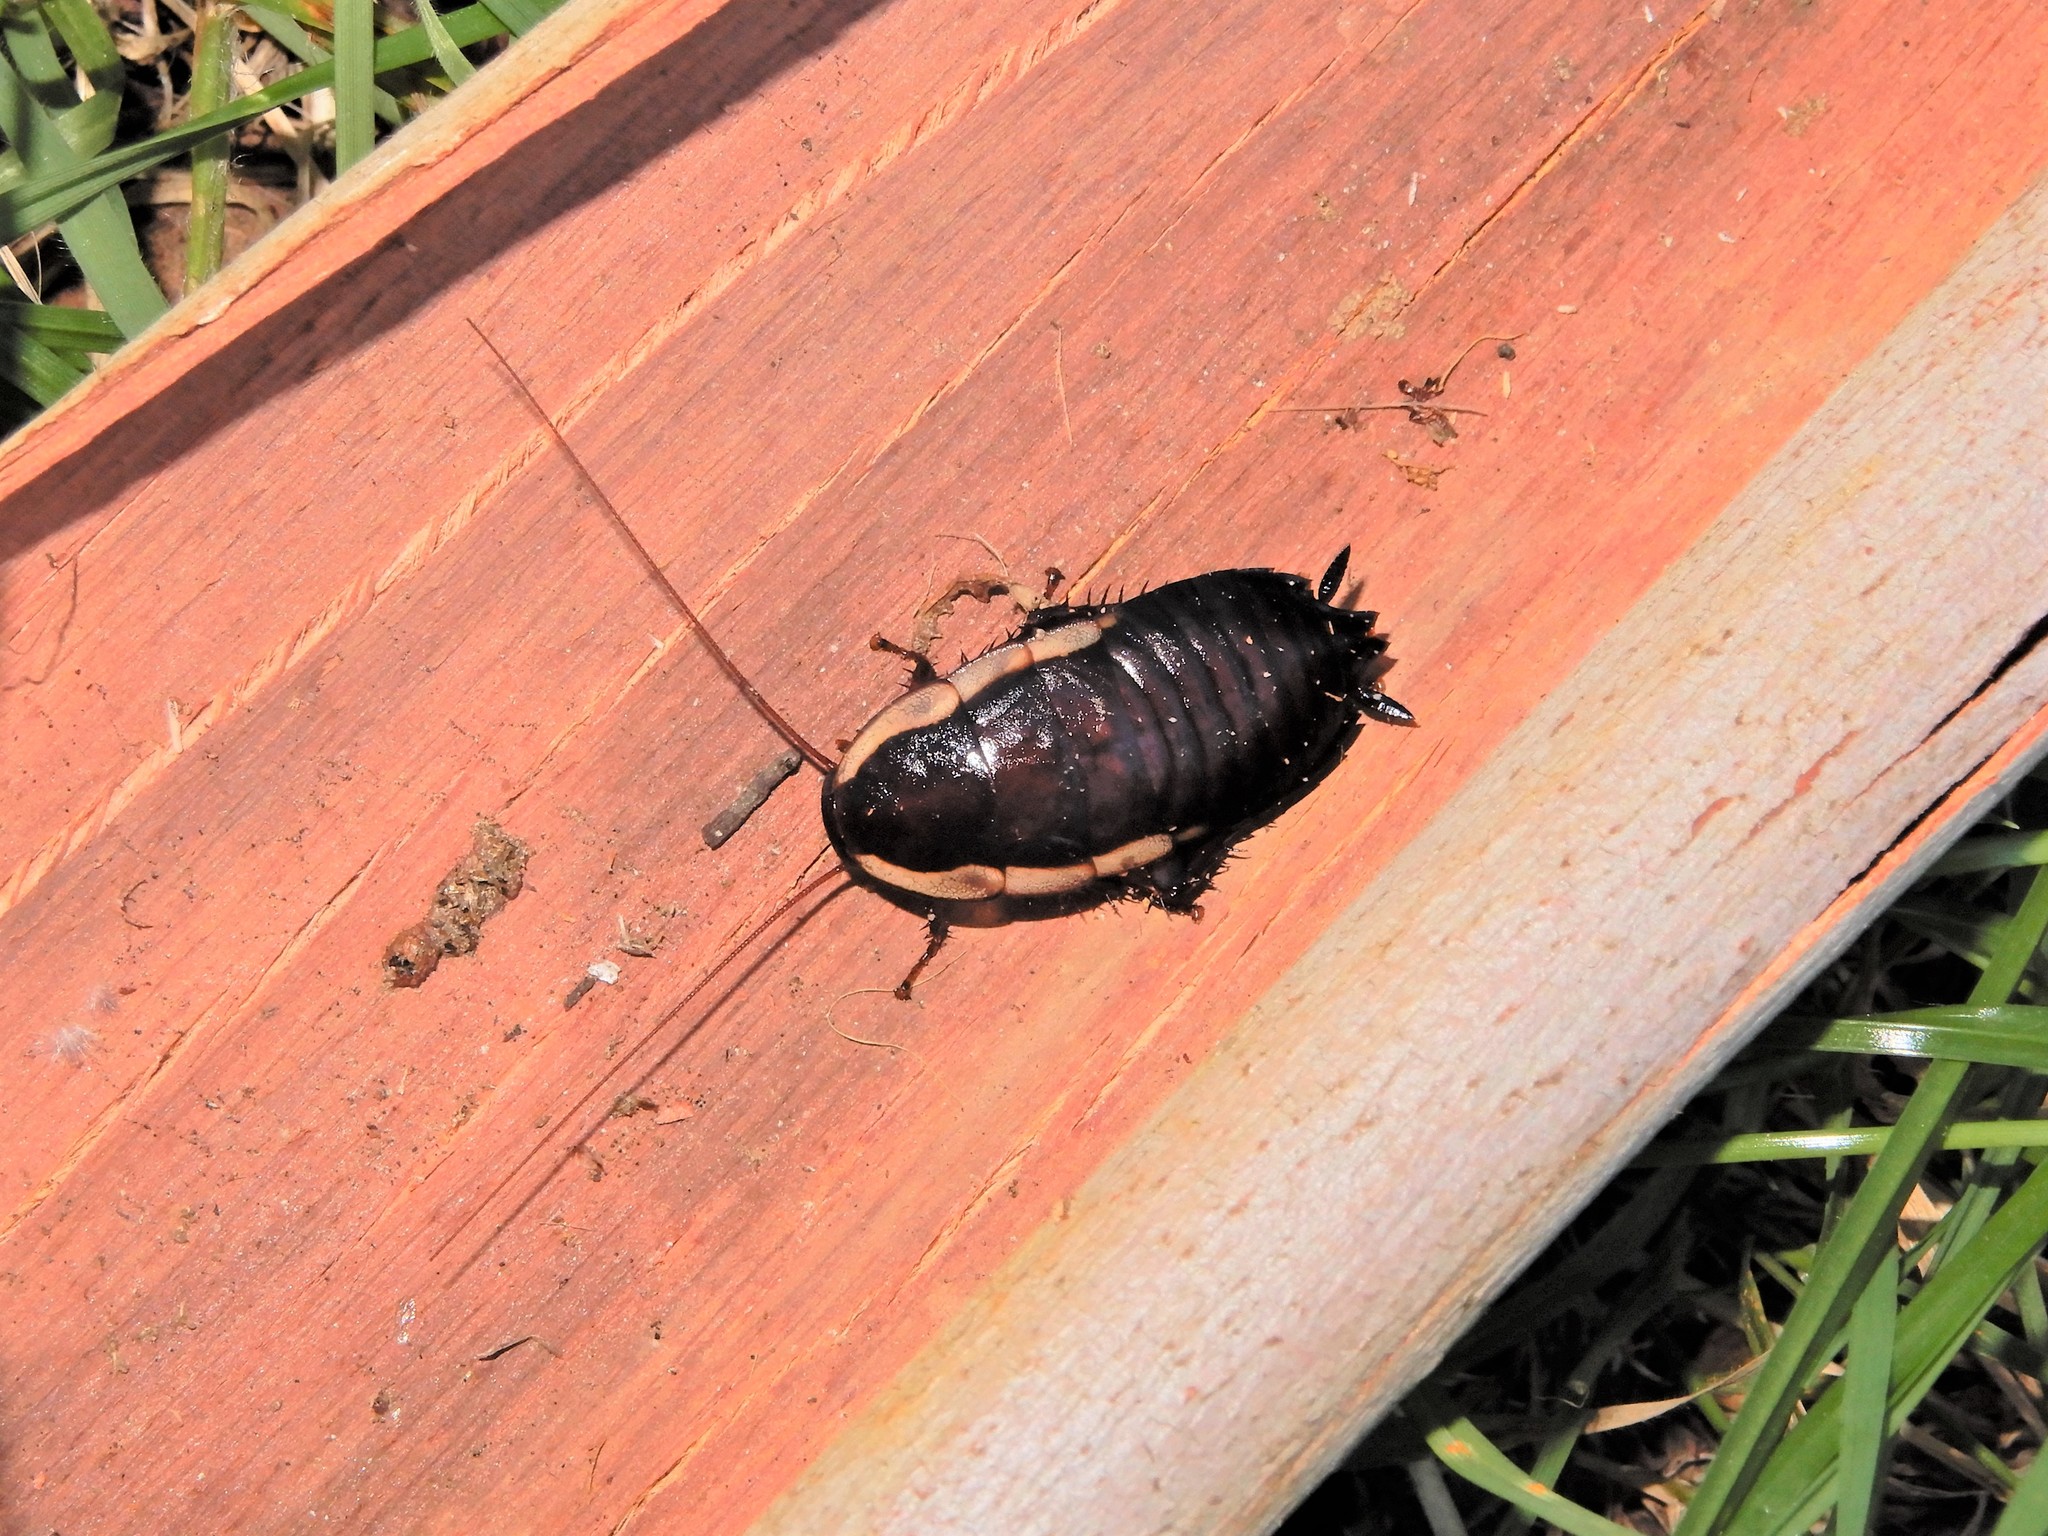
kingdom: Animalia
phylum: Arthropoda
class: Insecta
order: Blattodea
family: Blattidae
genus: Drymaplaneta
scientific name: Drymaplaneta semivitta
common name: Gisborne cockroach
